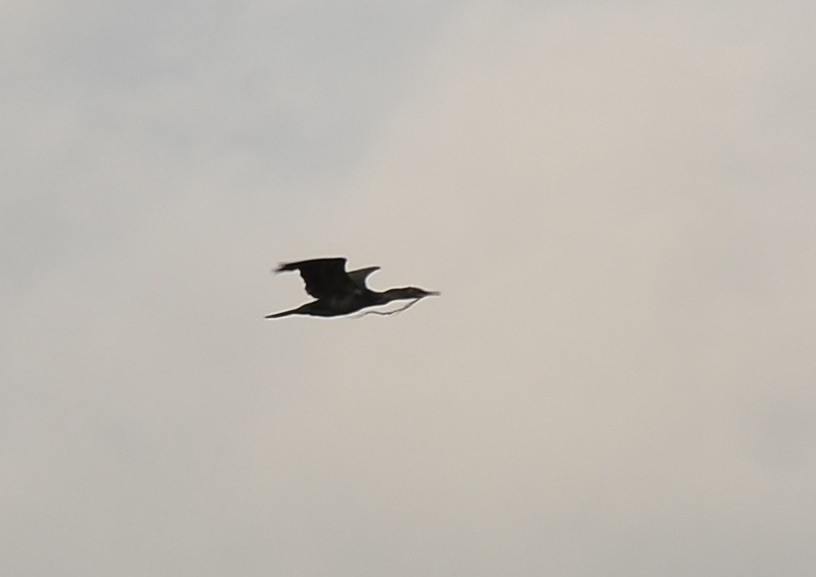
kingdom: Animalia
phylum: Chordata
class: Aves
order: Suliformes
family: Phalacrocoracidae
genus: Phalacrocorax
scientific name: Phalacrocorax fuscicollis
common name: Indian cormorant
